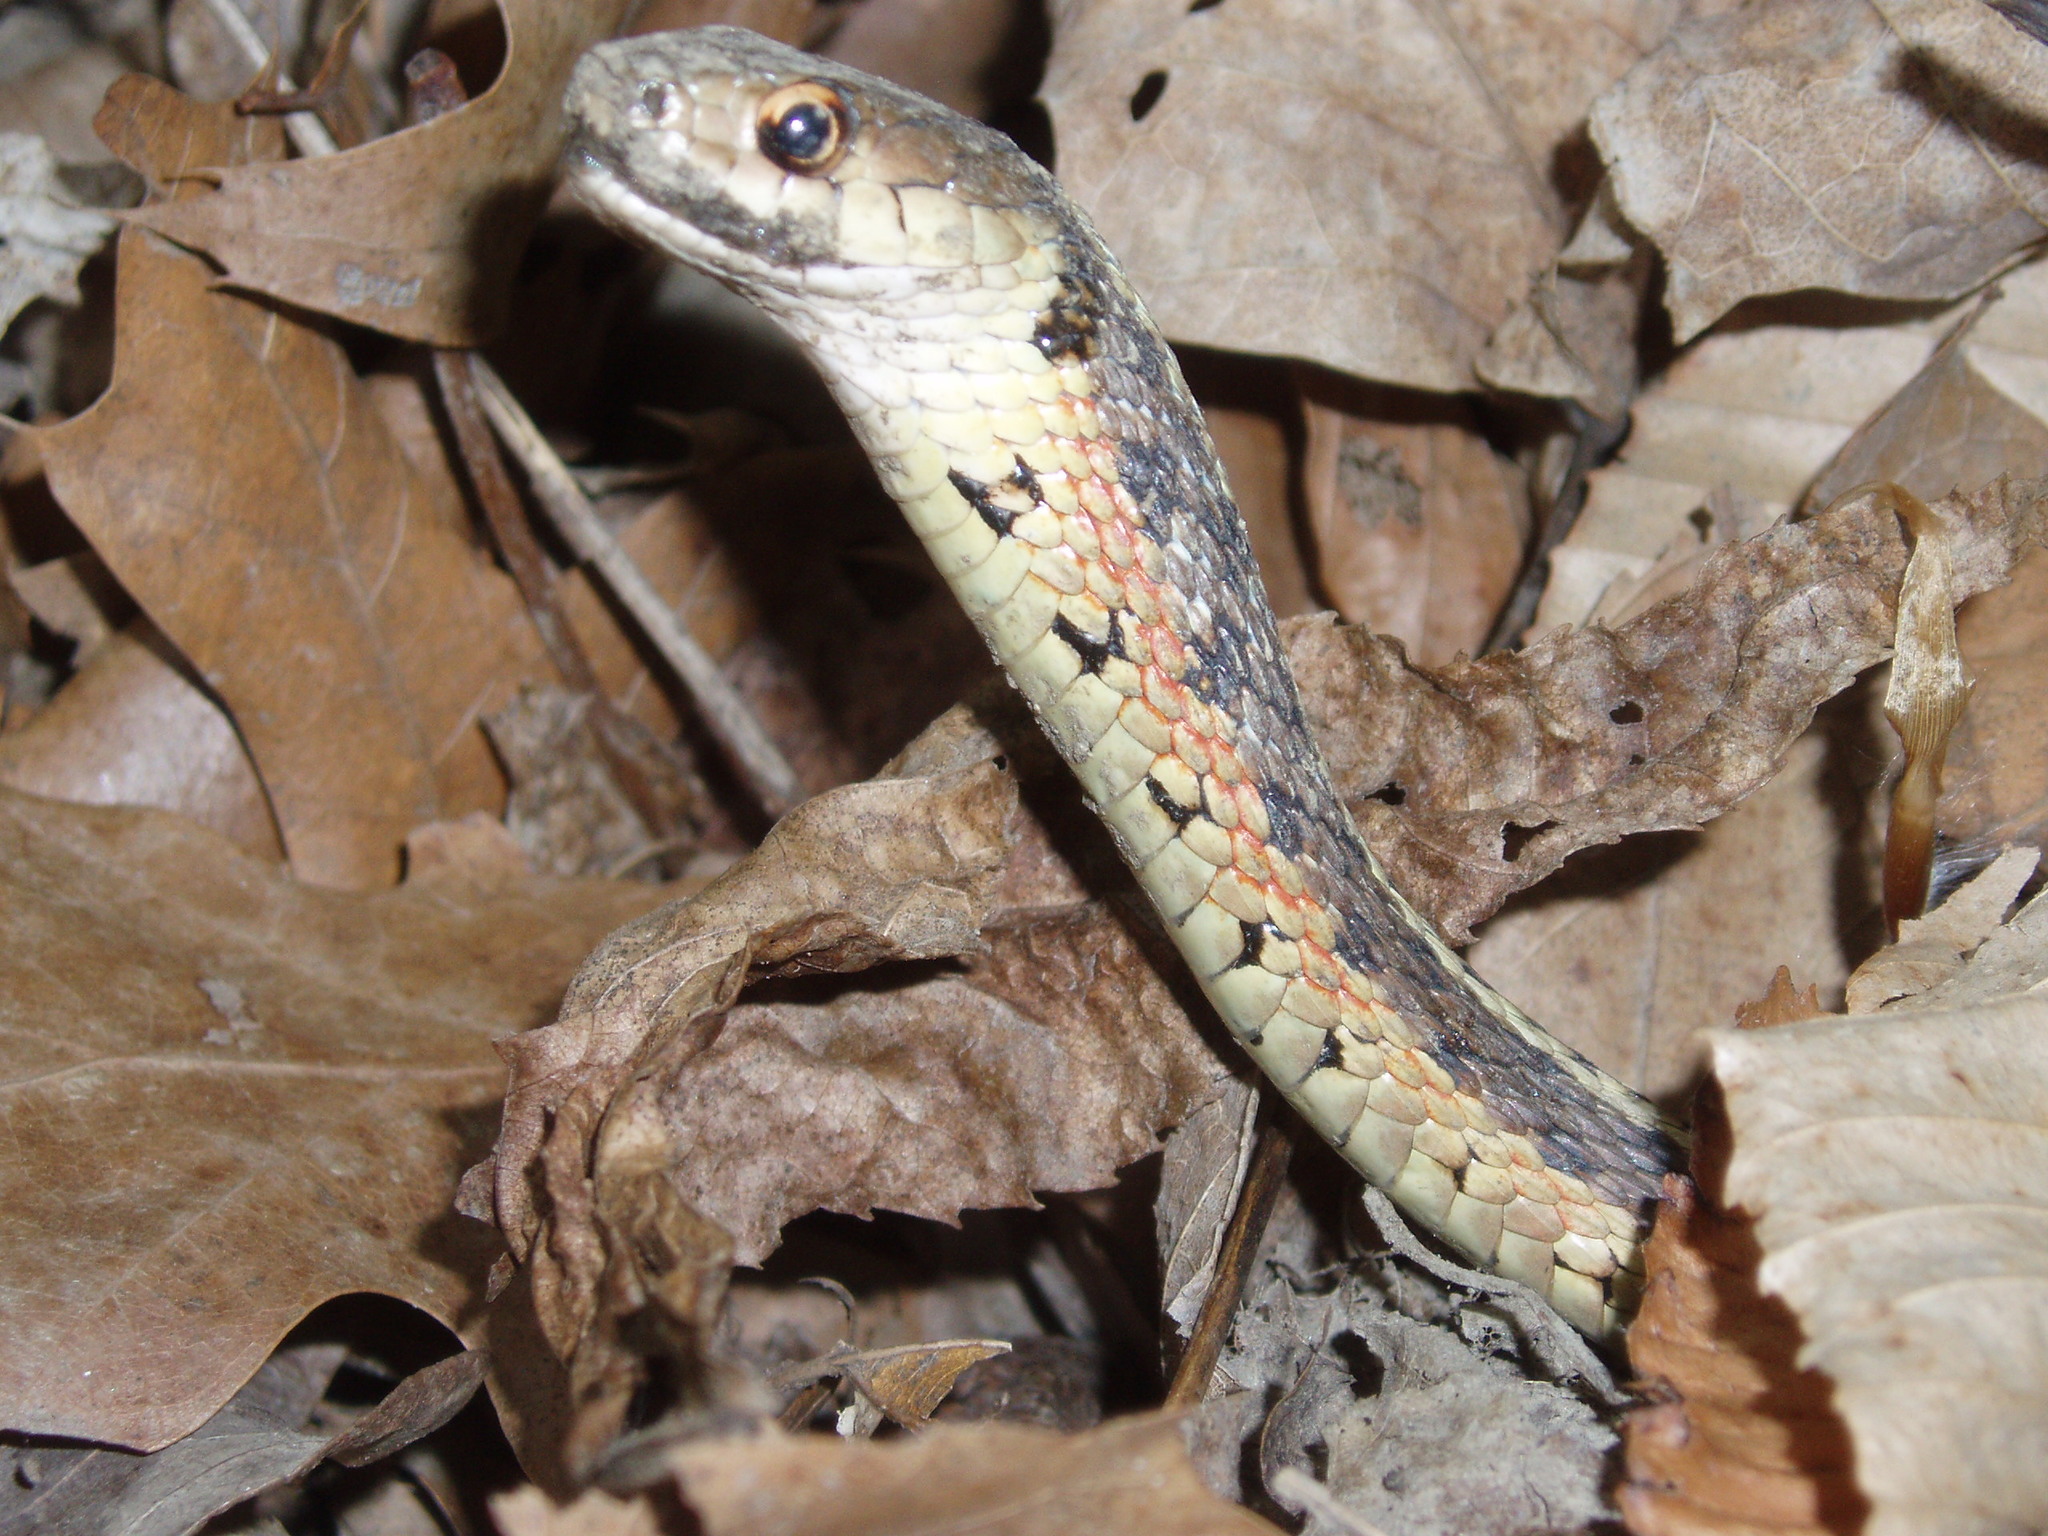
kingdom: Animalia
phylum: Chordata
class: Squamata
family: Colubridae
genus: Thamnophis
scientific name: Thamnophis sirtalis
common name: Common garter snake
